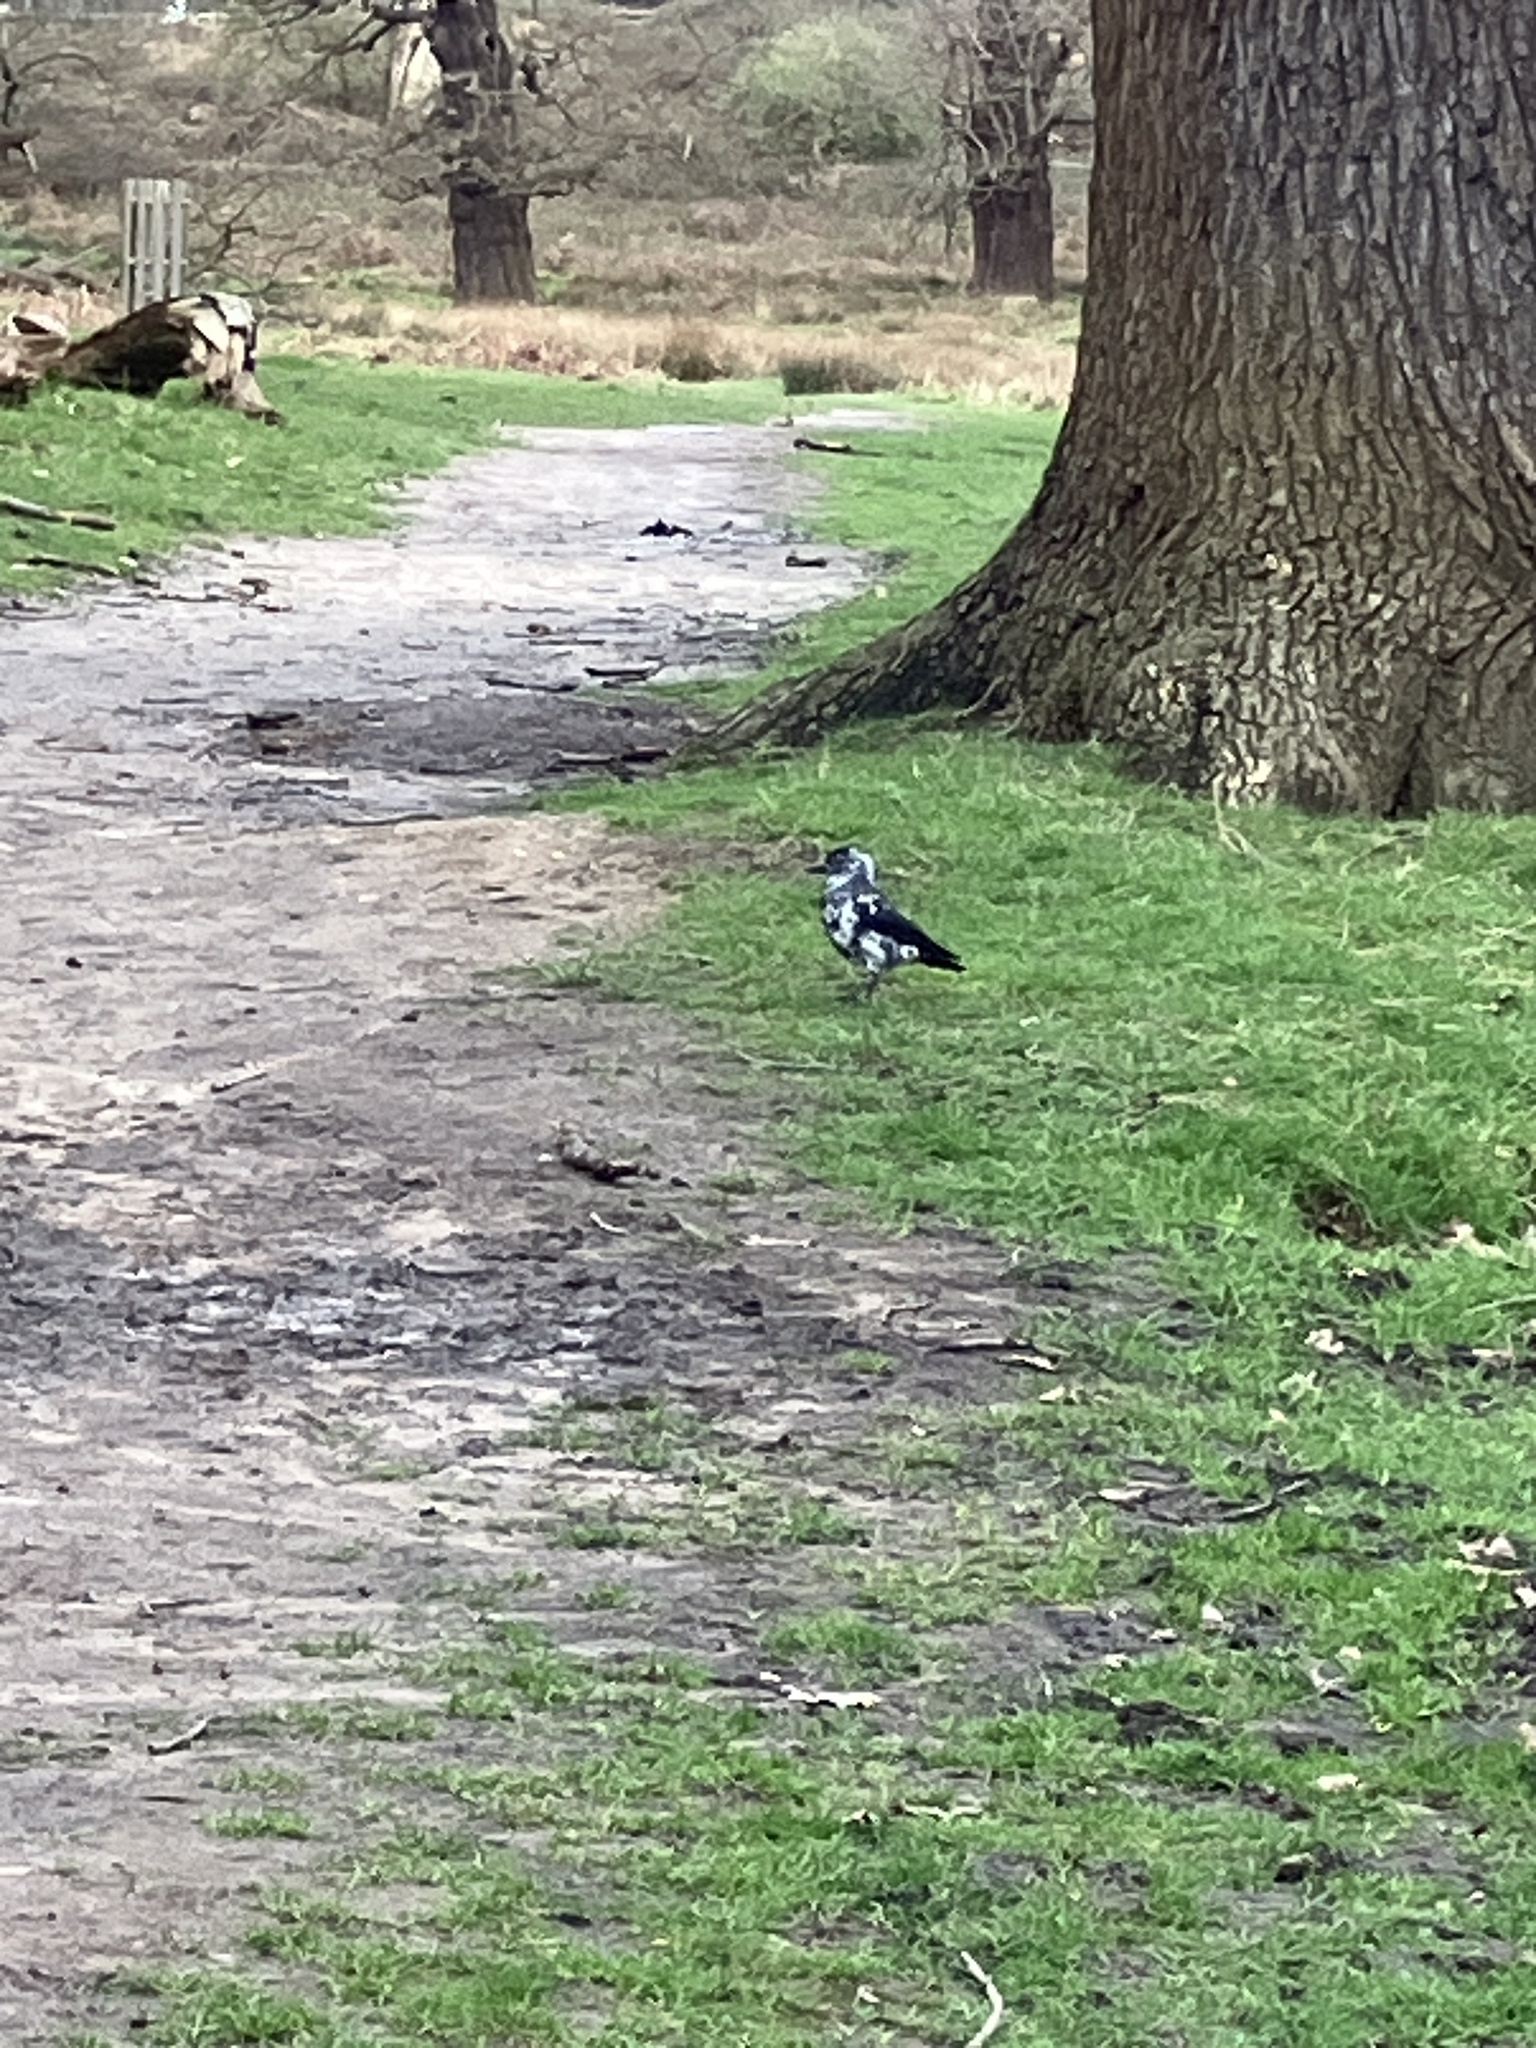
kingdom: Animalia
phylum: Chordata
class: Aves
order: Passeriformes
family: Corvidae
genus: Coloeus
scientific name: Coloeus monedula
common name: Western jackdaw
